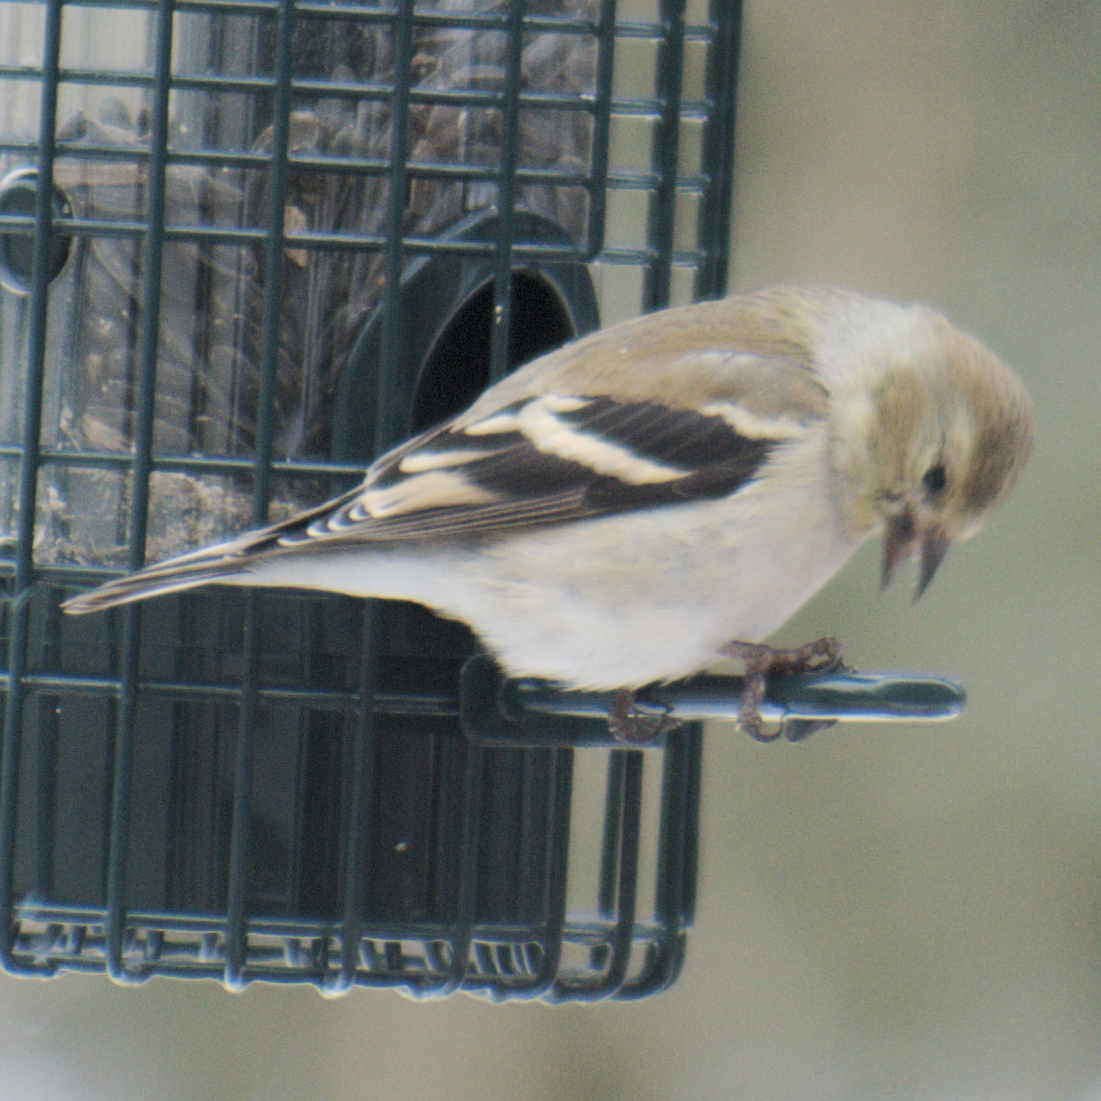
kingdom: Animalia
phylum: Chordata
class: Aves
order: Passeriformes
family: Fringillidae
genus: Spinus
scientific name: Spinus tristis
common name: American goldfinch
